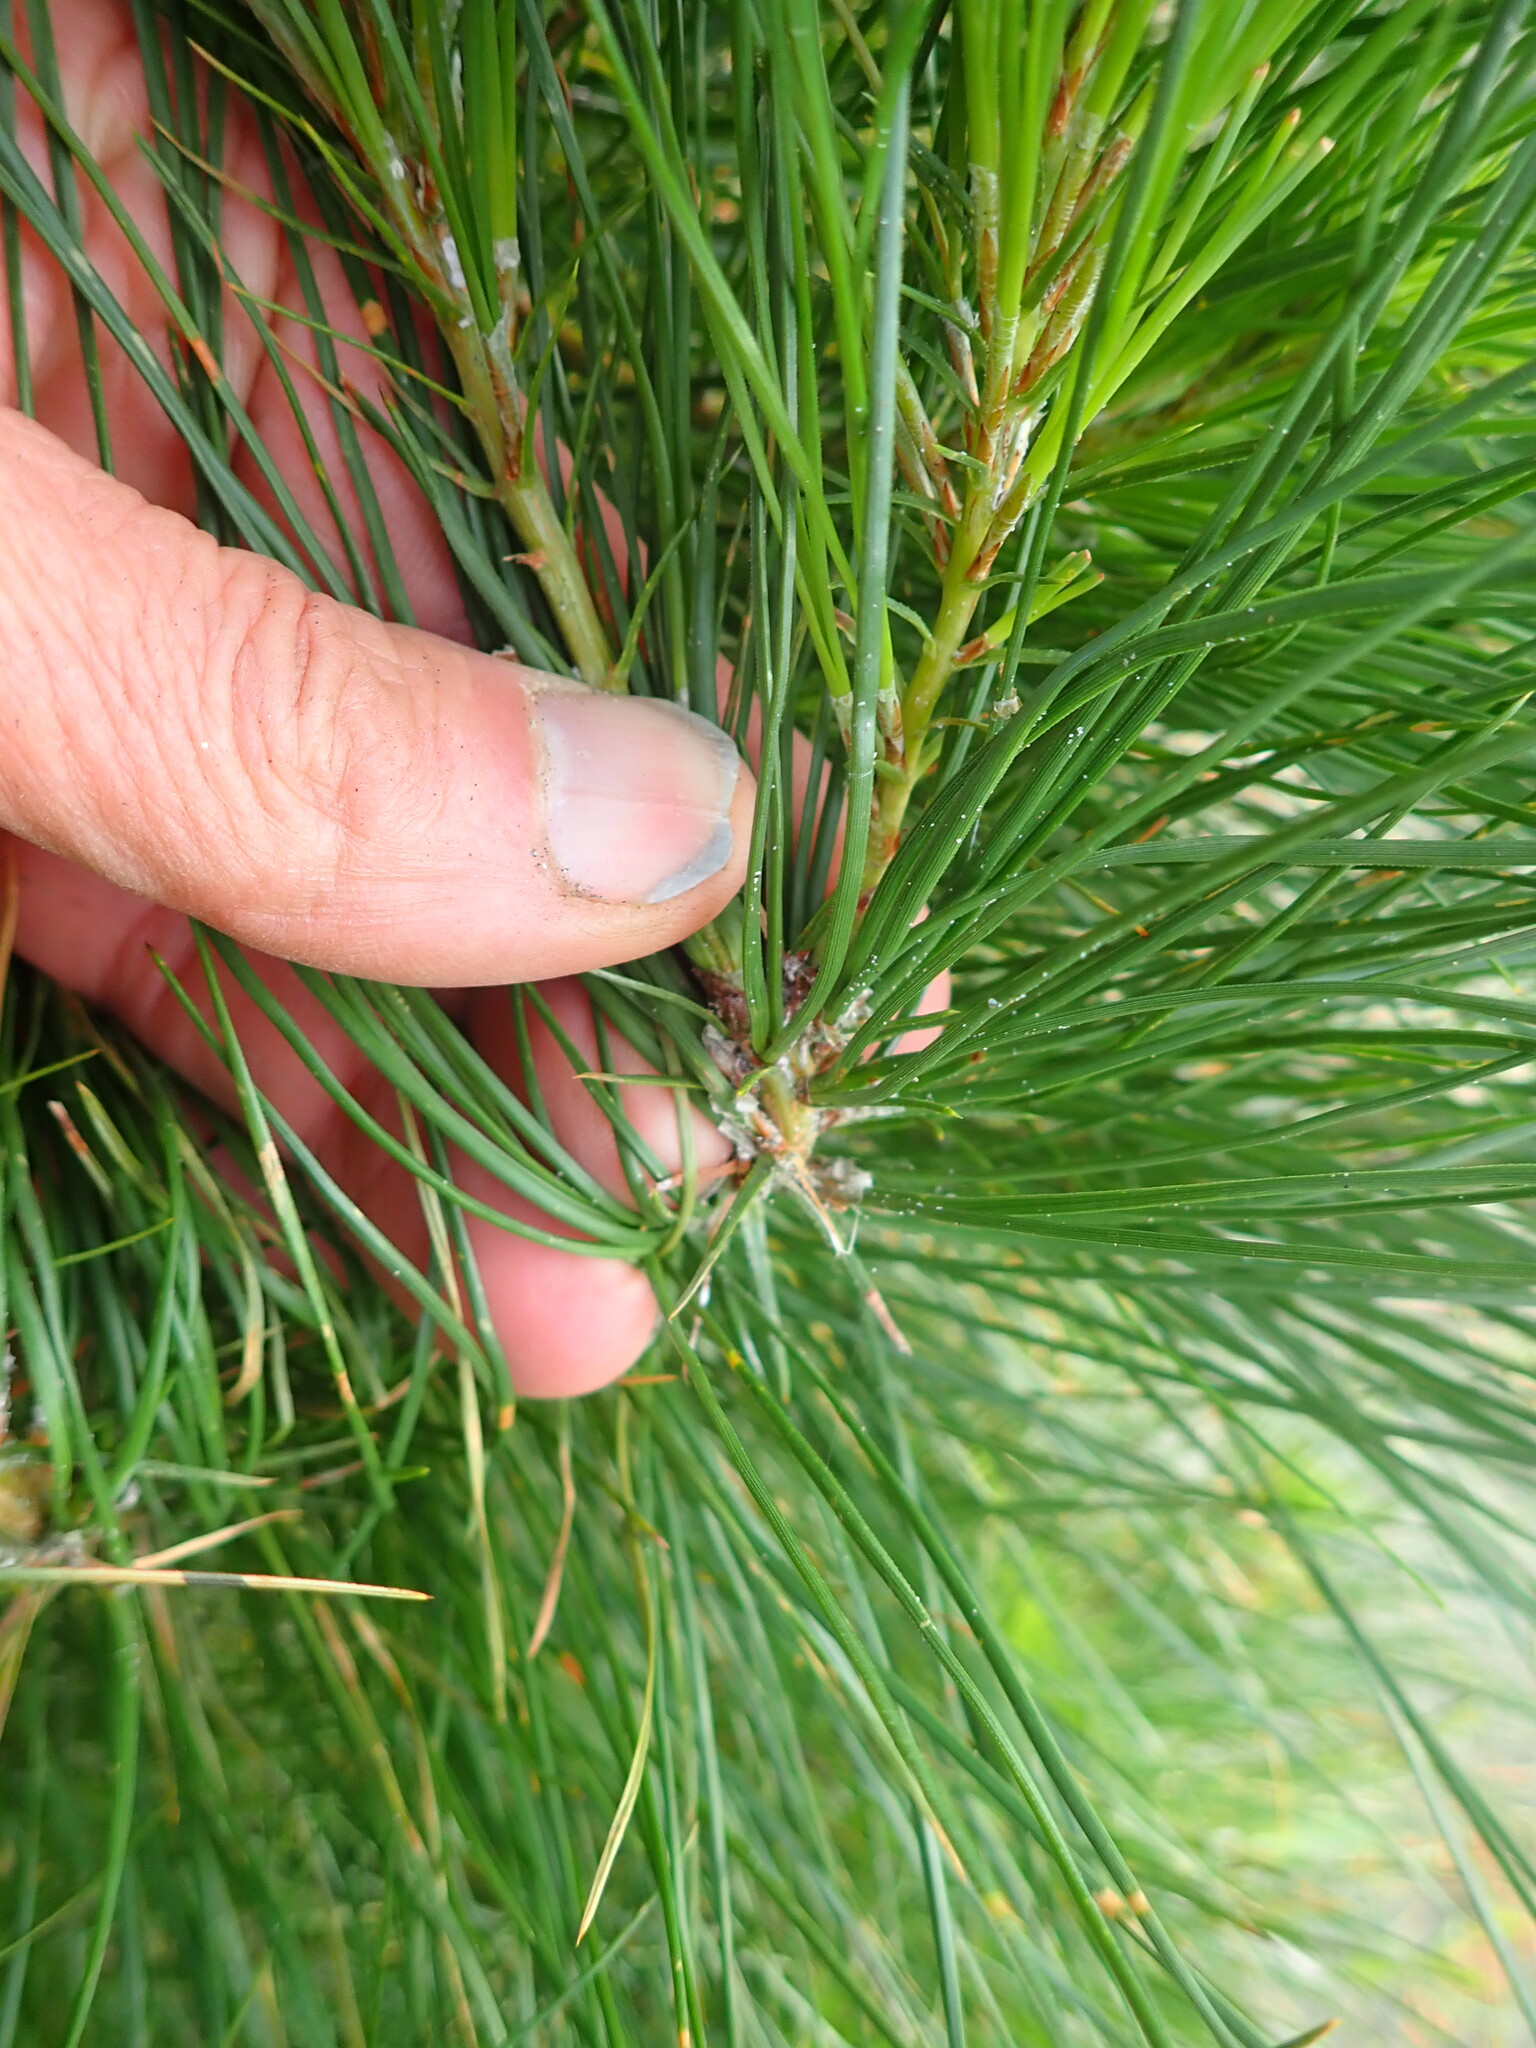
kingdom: Plantae
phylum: Tracheophyta
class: Pinopsida
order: Pinales
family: Pinaceae
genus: Pinus
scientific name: Pinus radiata
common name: Monterey pine
